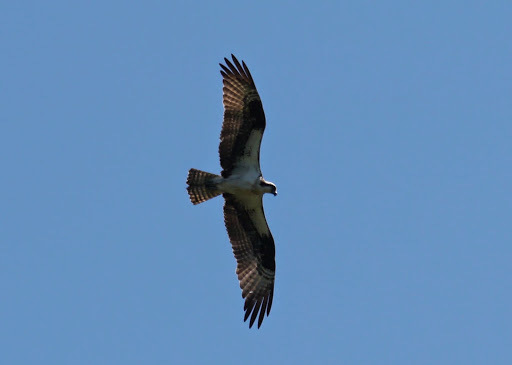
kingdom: Animalia
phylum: Chordata
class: Aves
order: Accipitriformes
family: Pandionidae
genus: Pandion
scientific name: Pandion haliaetus
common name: Osprey
